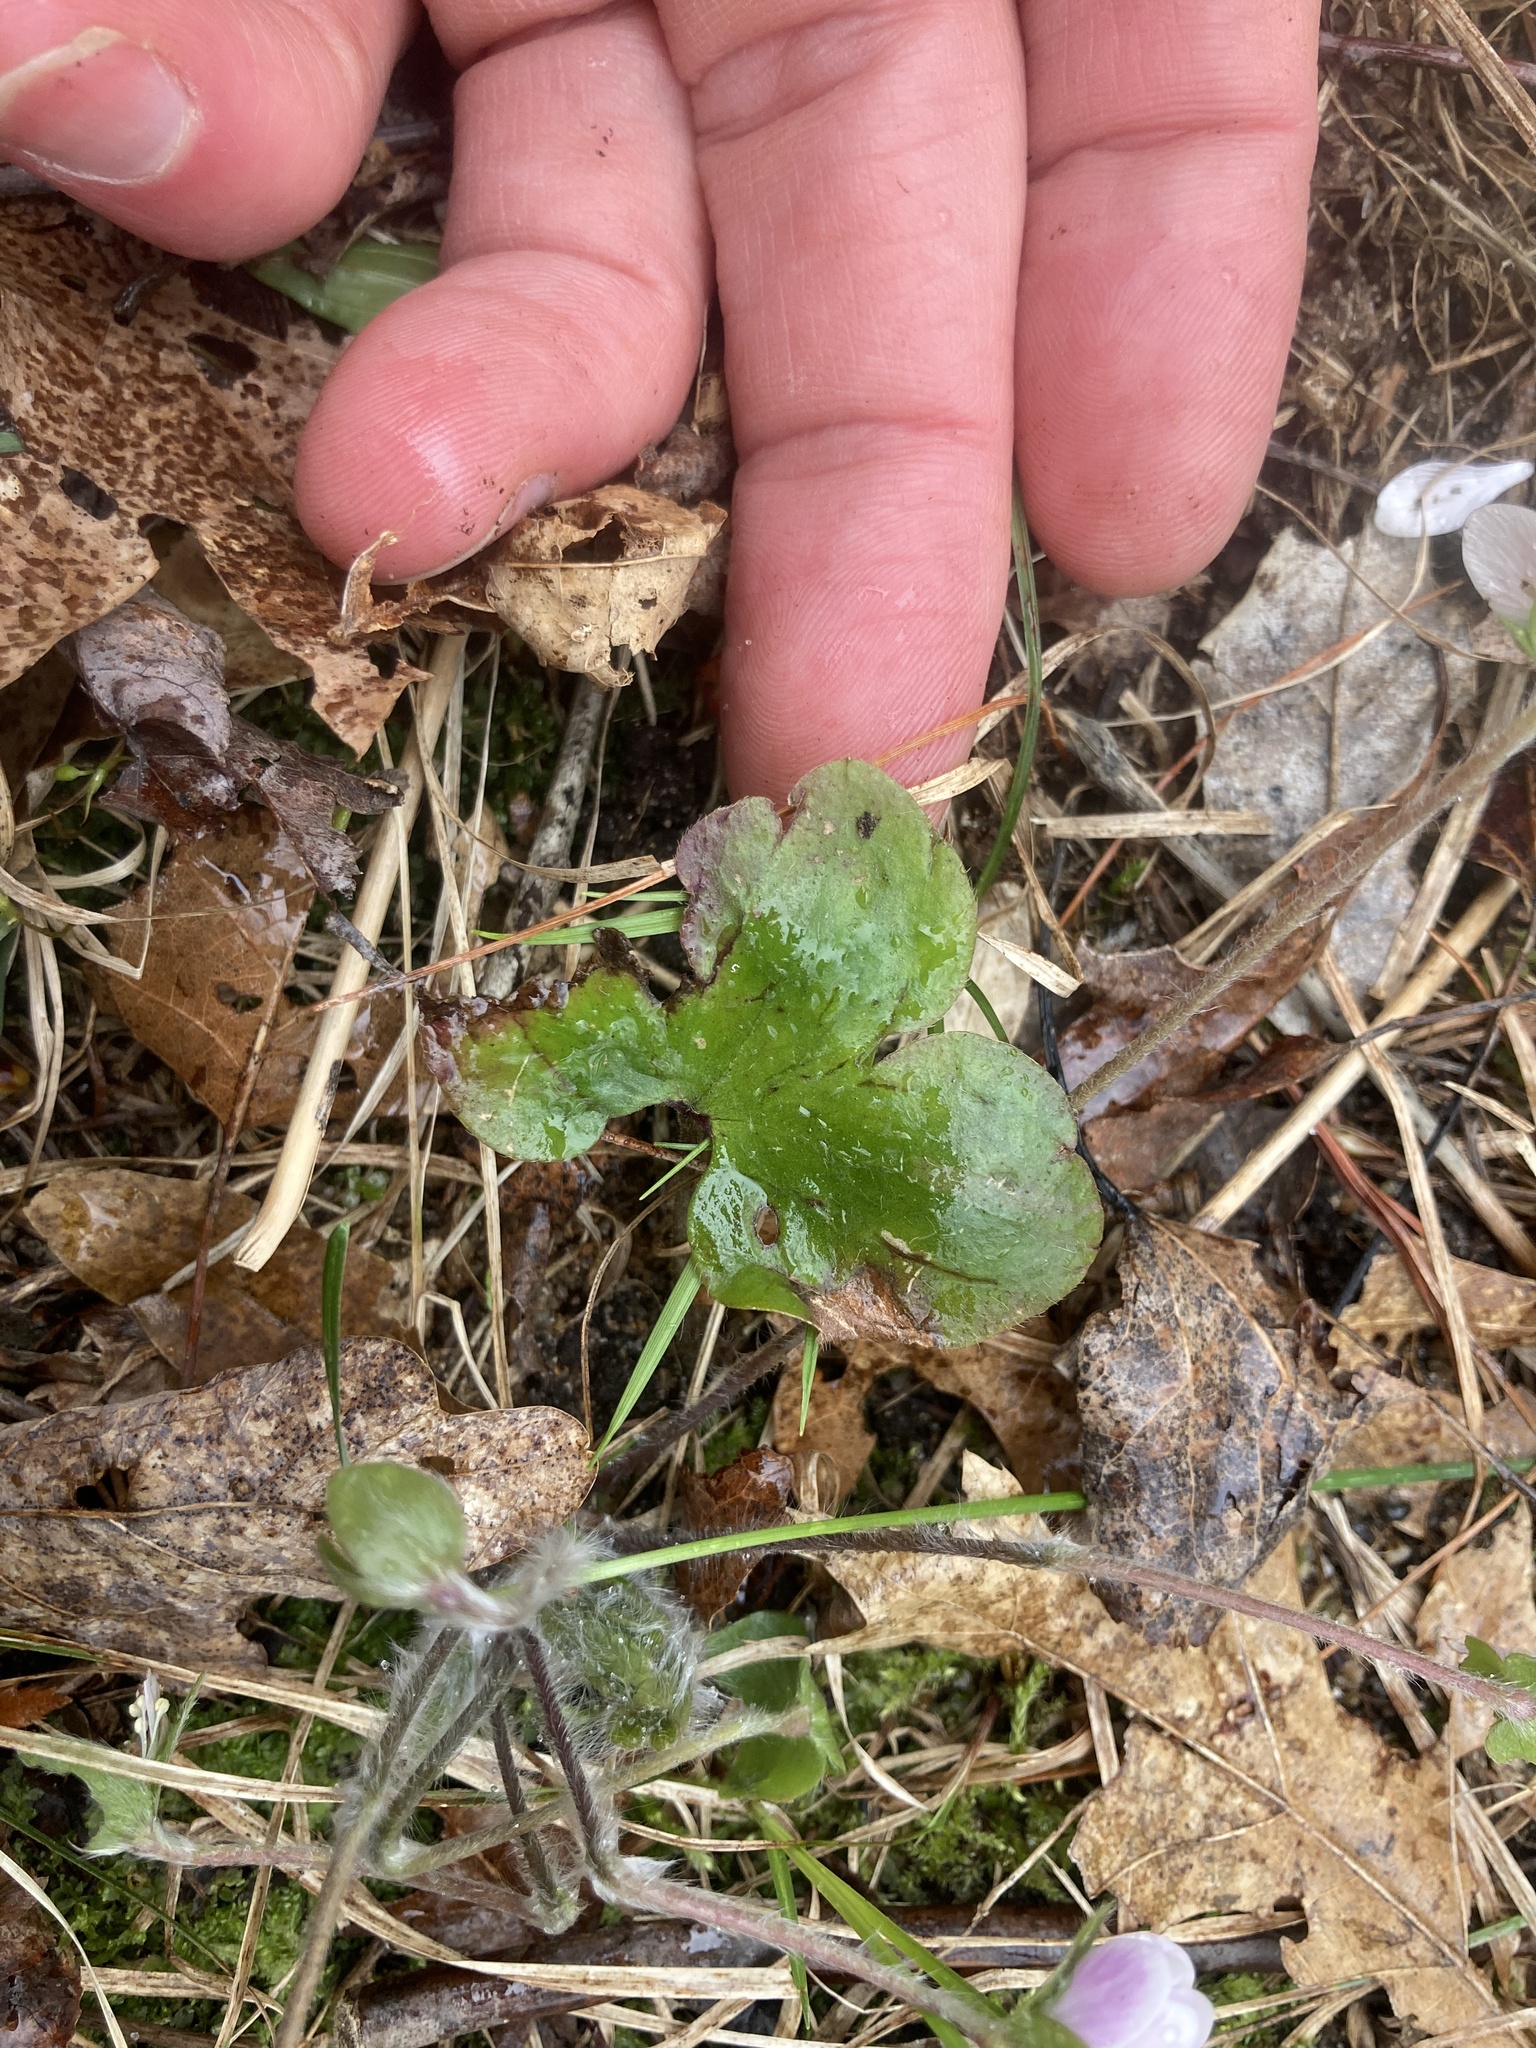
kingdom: Plantae
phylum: Tracheophyta
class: Magnoliopsida
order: Ranunculales
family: Ranunculaceae
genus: Hepatica
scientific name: Hepatica americana
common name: American hepatica
